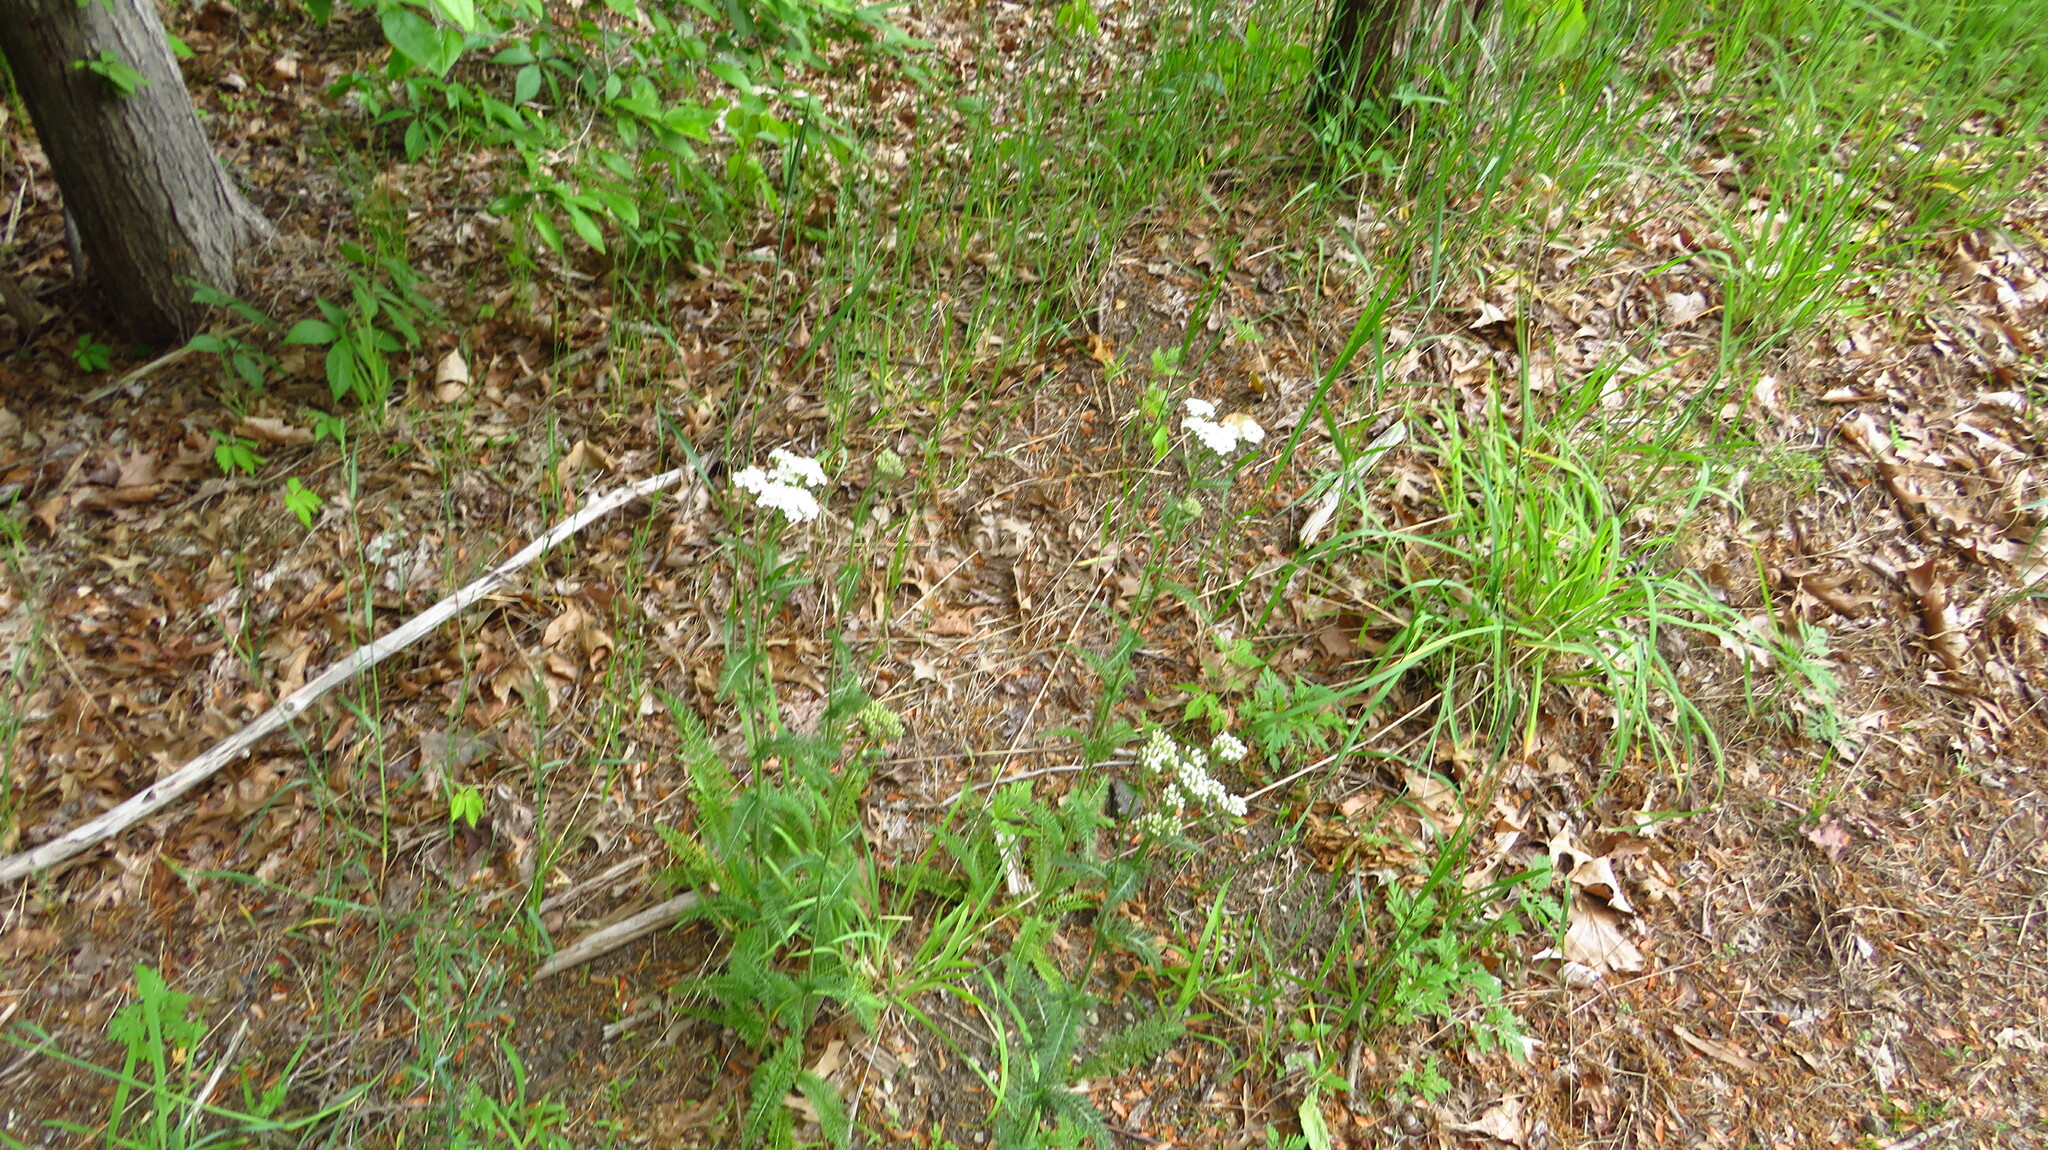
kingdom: Plantae
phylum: Tracheophyta
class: Magnoliopsida
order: Asterales
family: Asteraceae
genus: Achillea
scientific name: Achillea millefolium
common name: Yarrow
